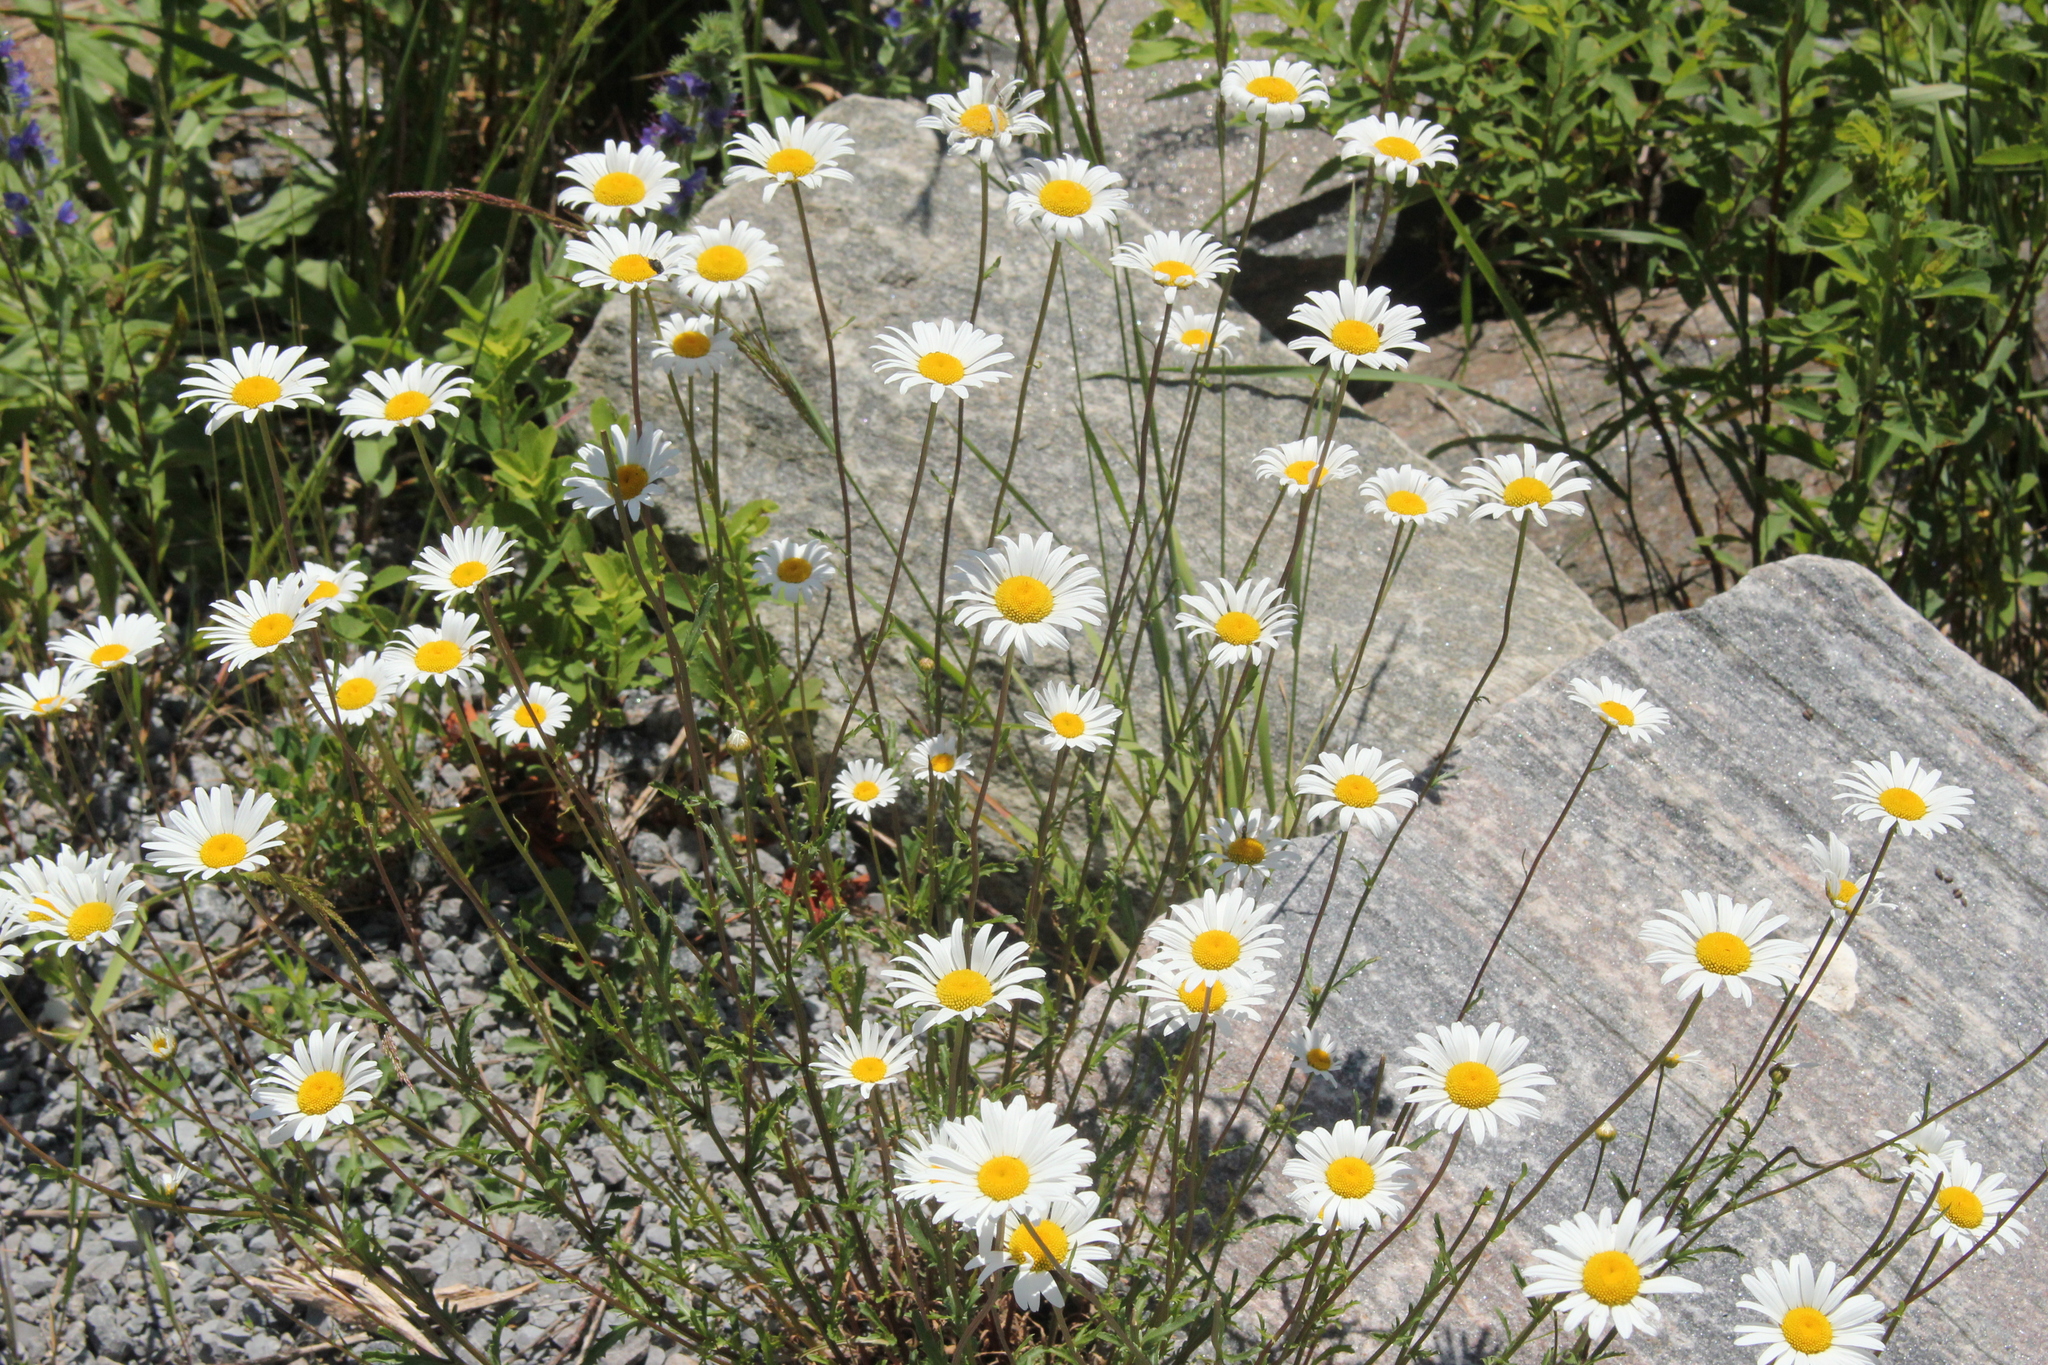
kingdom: Plantae
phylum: Tracheophyta
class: Magnoliopsida
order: Asterales
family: Asteraceae
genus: Leucanthemum
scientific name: Leucanthemum vulgare
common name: Oxeye daisy
